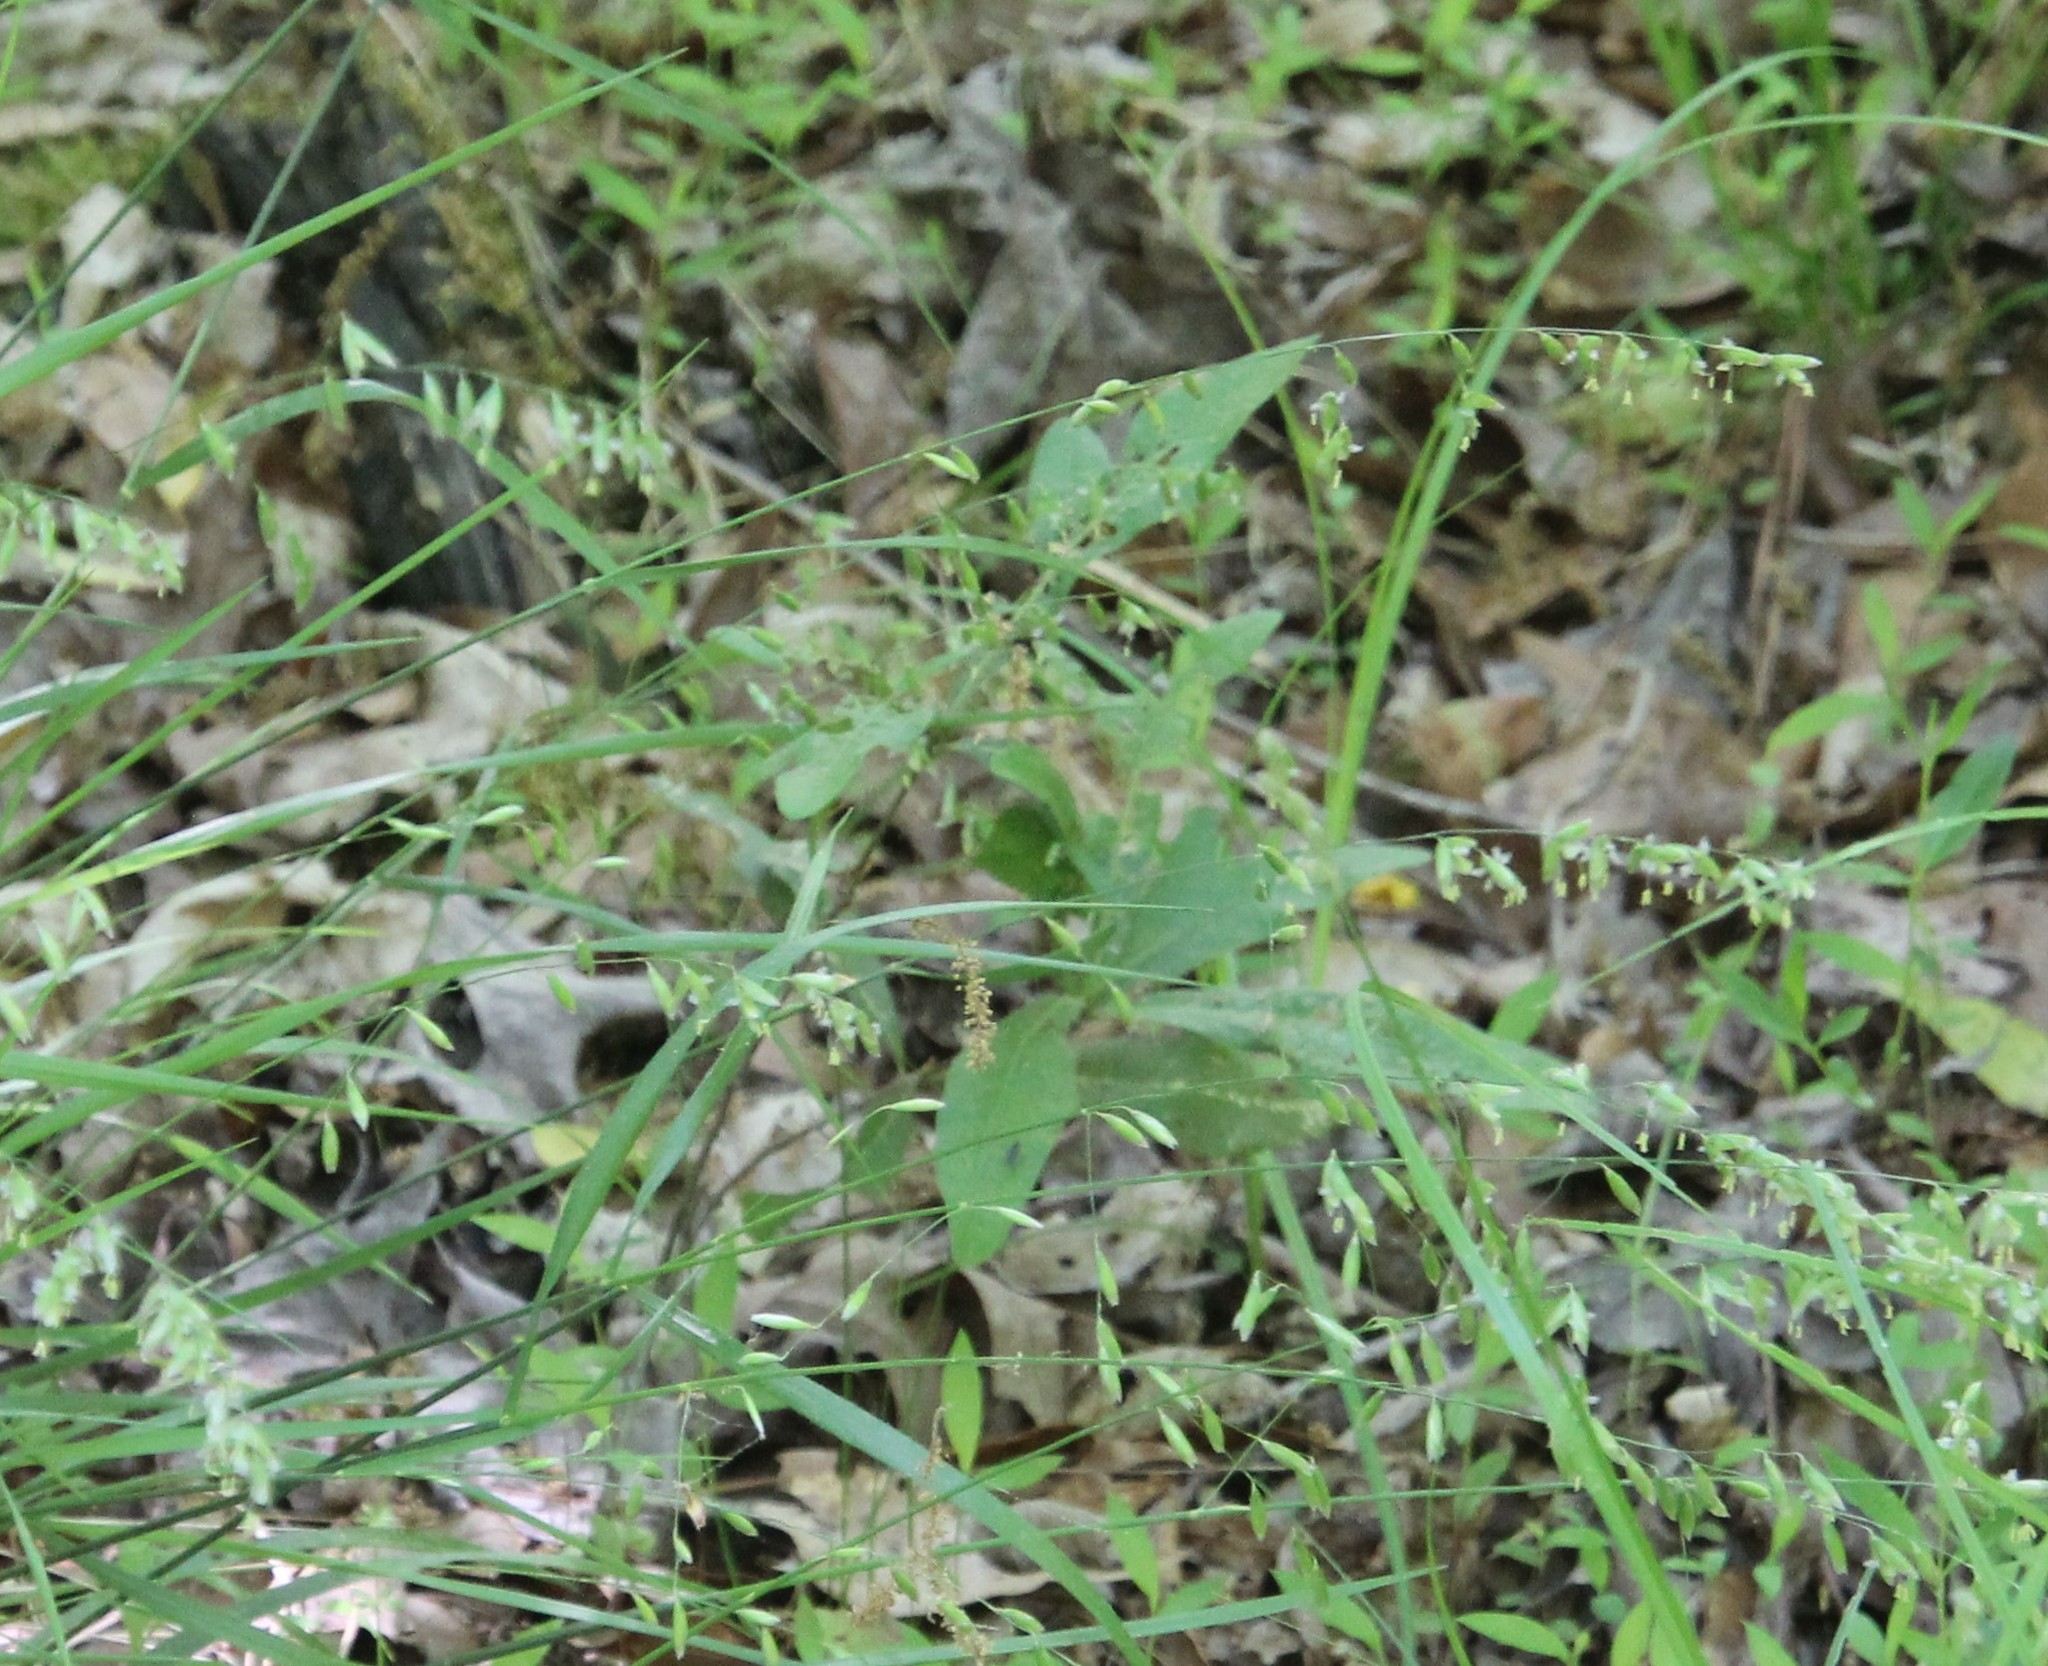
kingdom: Plantae
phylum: Tracheophyta
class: Liliopsida
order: Poales
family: Poaceae
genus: Melica
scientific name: Melica mutica
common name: Two-flower melic
